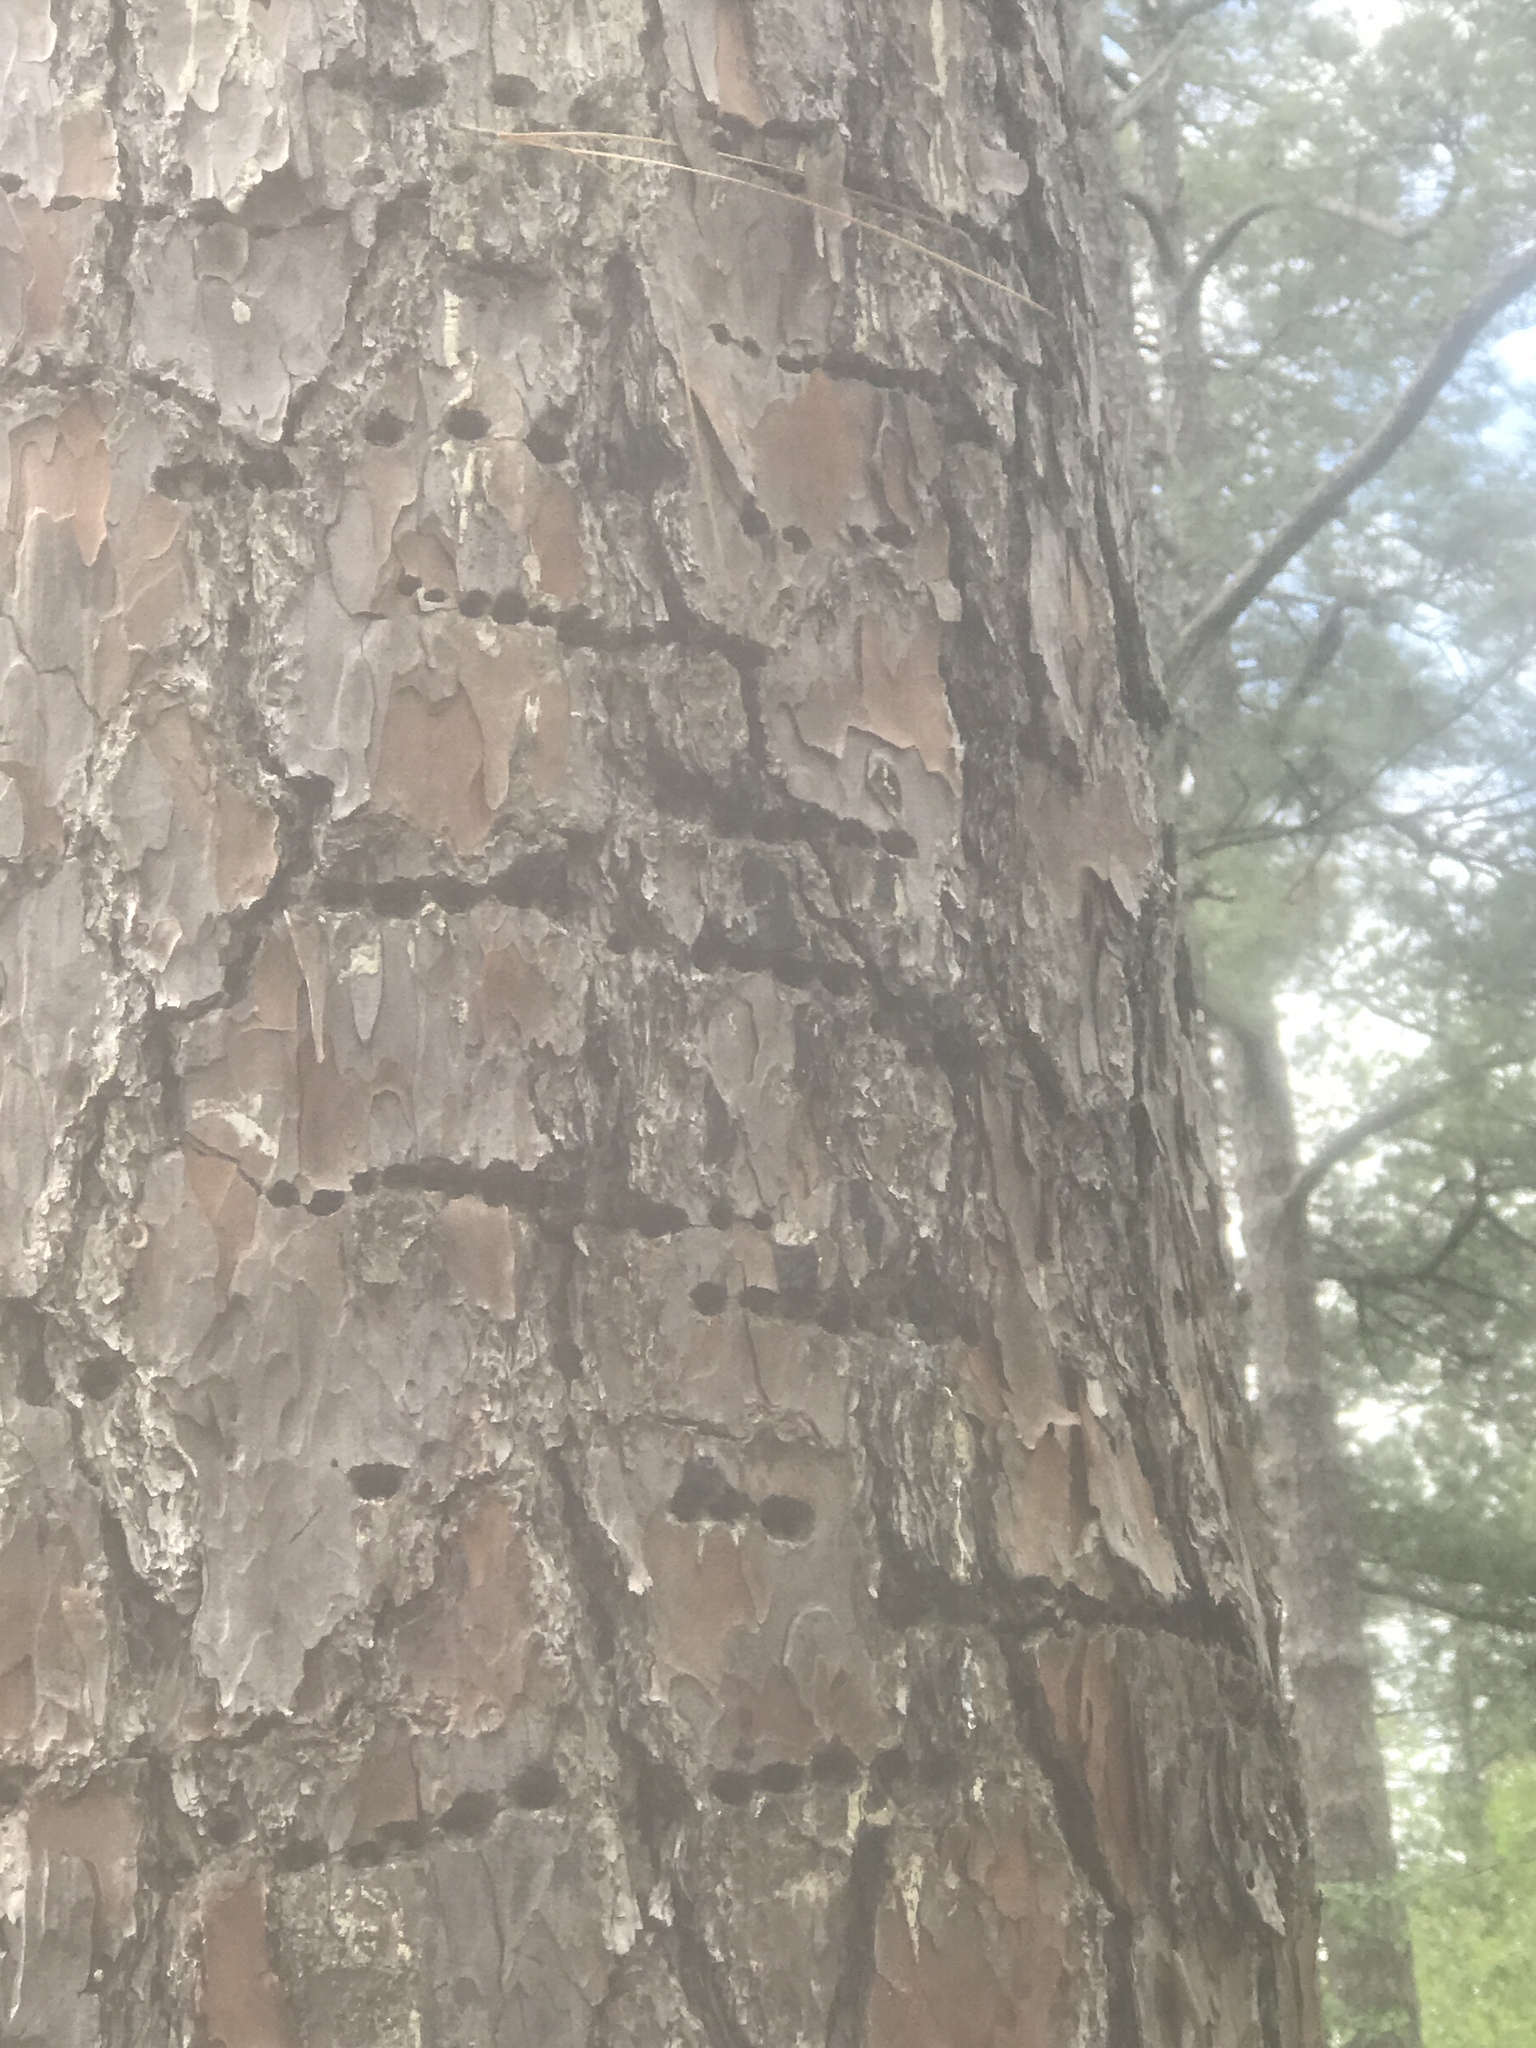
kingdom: Animalia
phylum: Chordata
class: Aves
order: Piciformes
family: Picidae
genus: Sphyrapicus
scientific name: Sphyrapicus varius
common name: Yellow-bellied sapsucker
